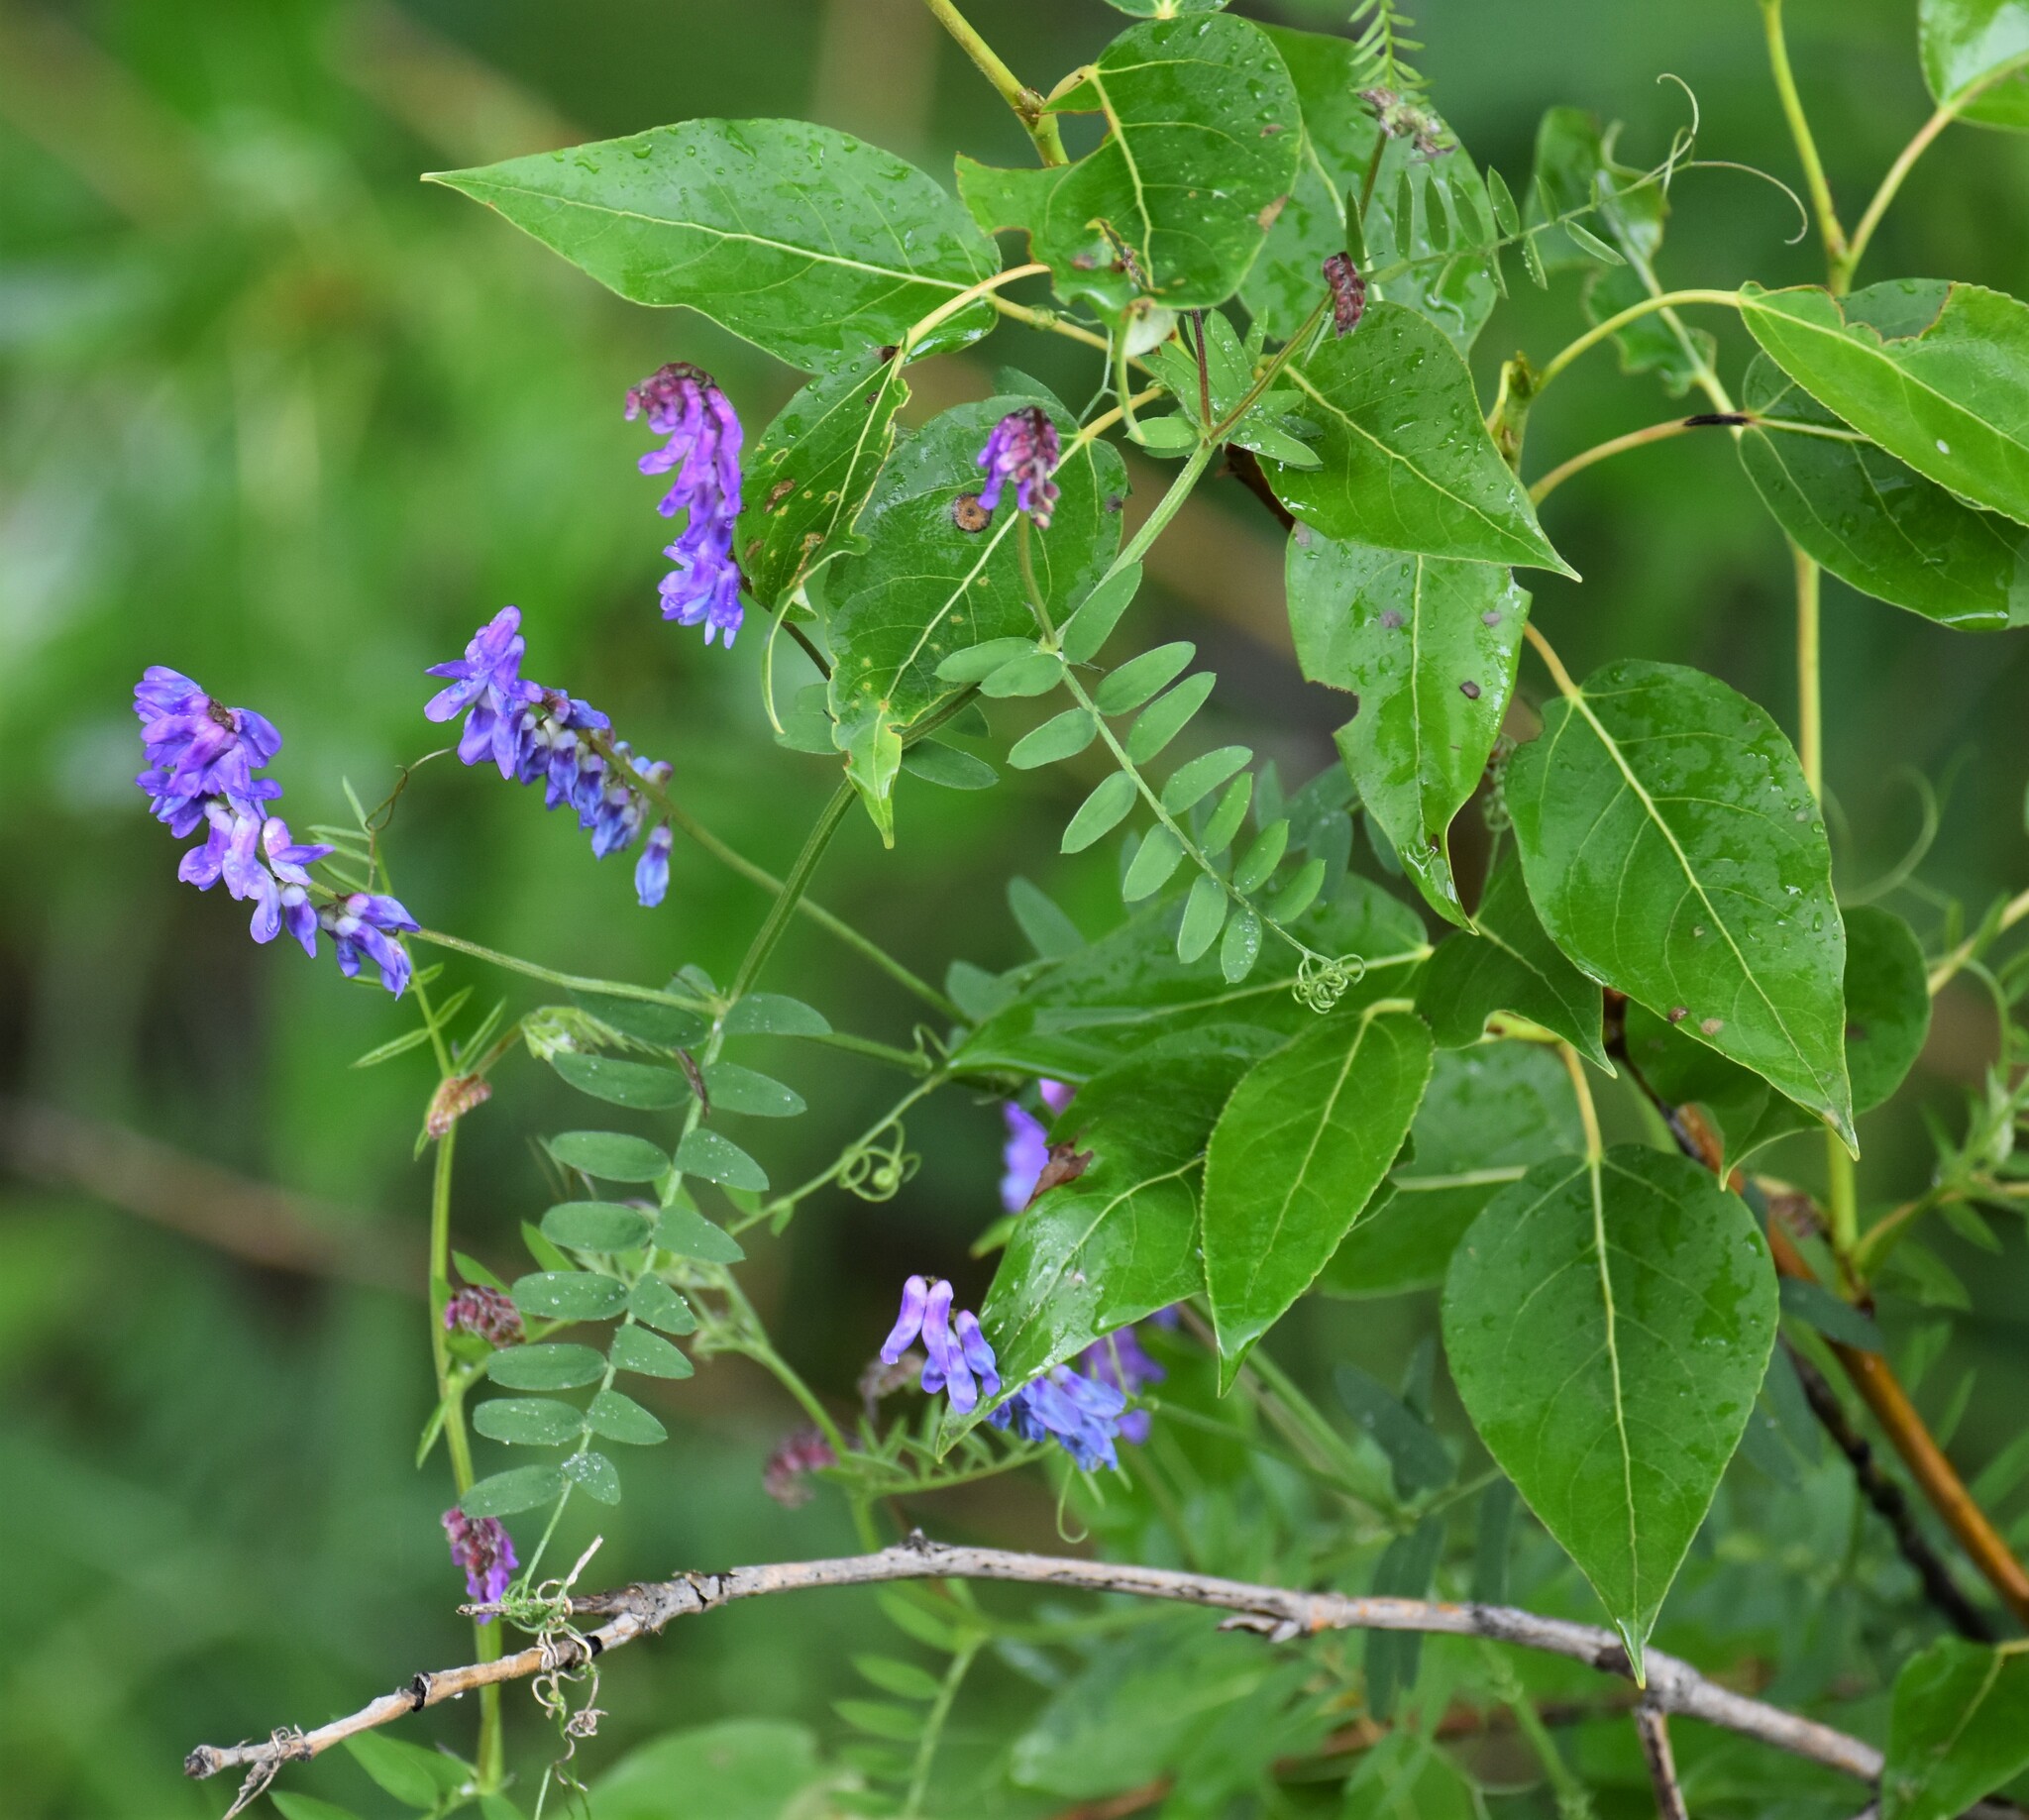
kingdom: Plantae
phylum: Tracheophyta
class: Magnoliopsida
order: Fabales
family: Fabaceae
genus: Vicia
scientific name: Vicia cracca
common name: Bird vetch
